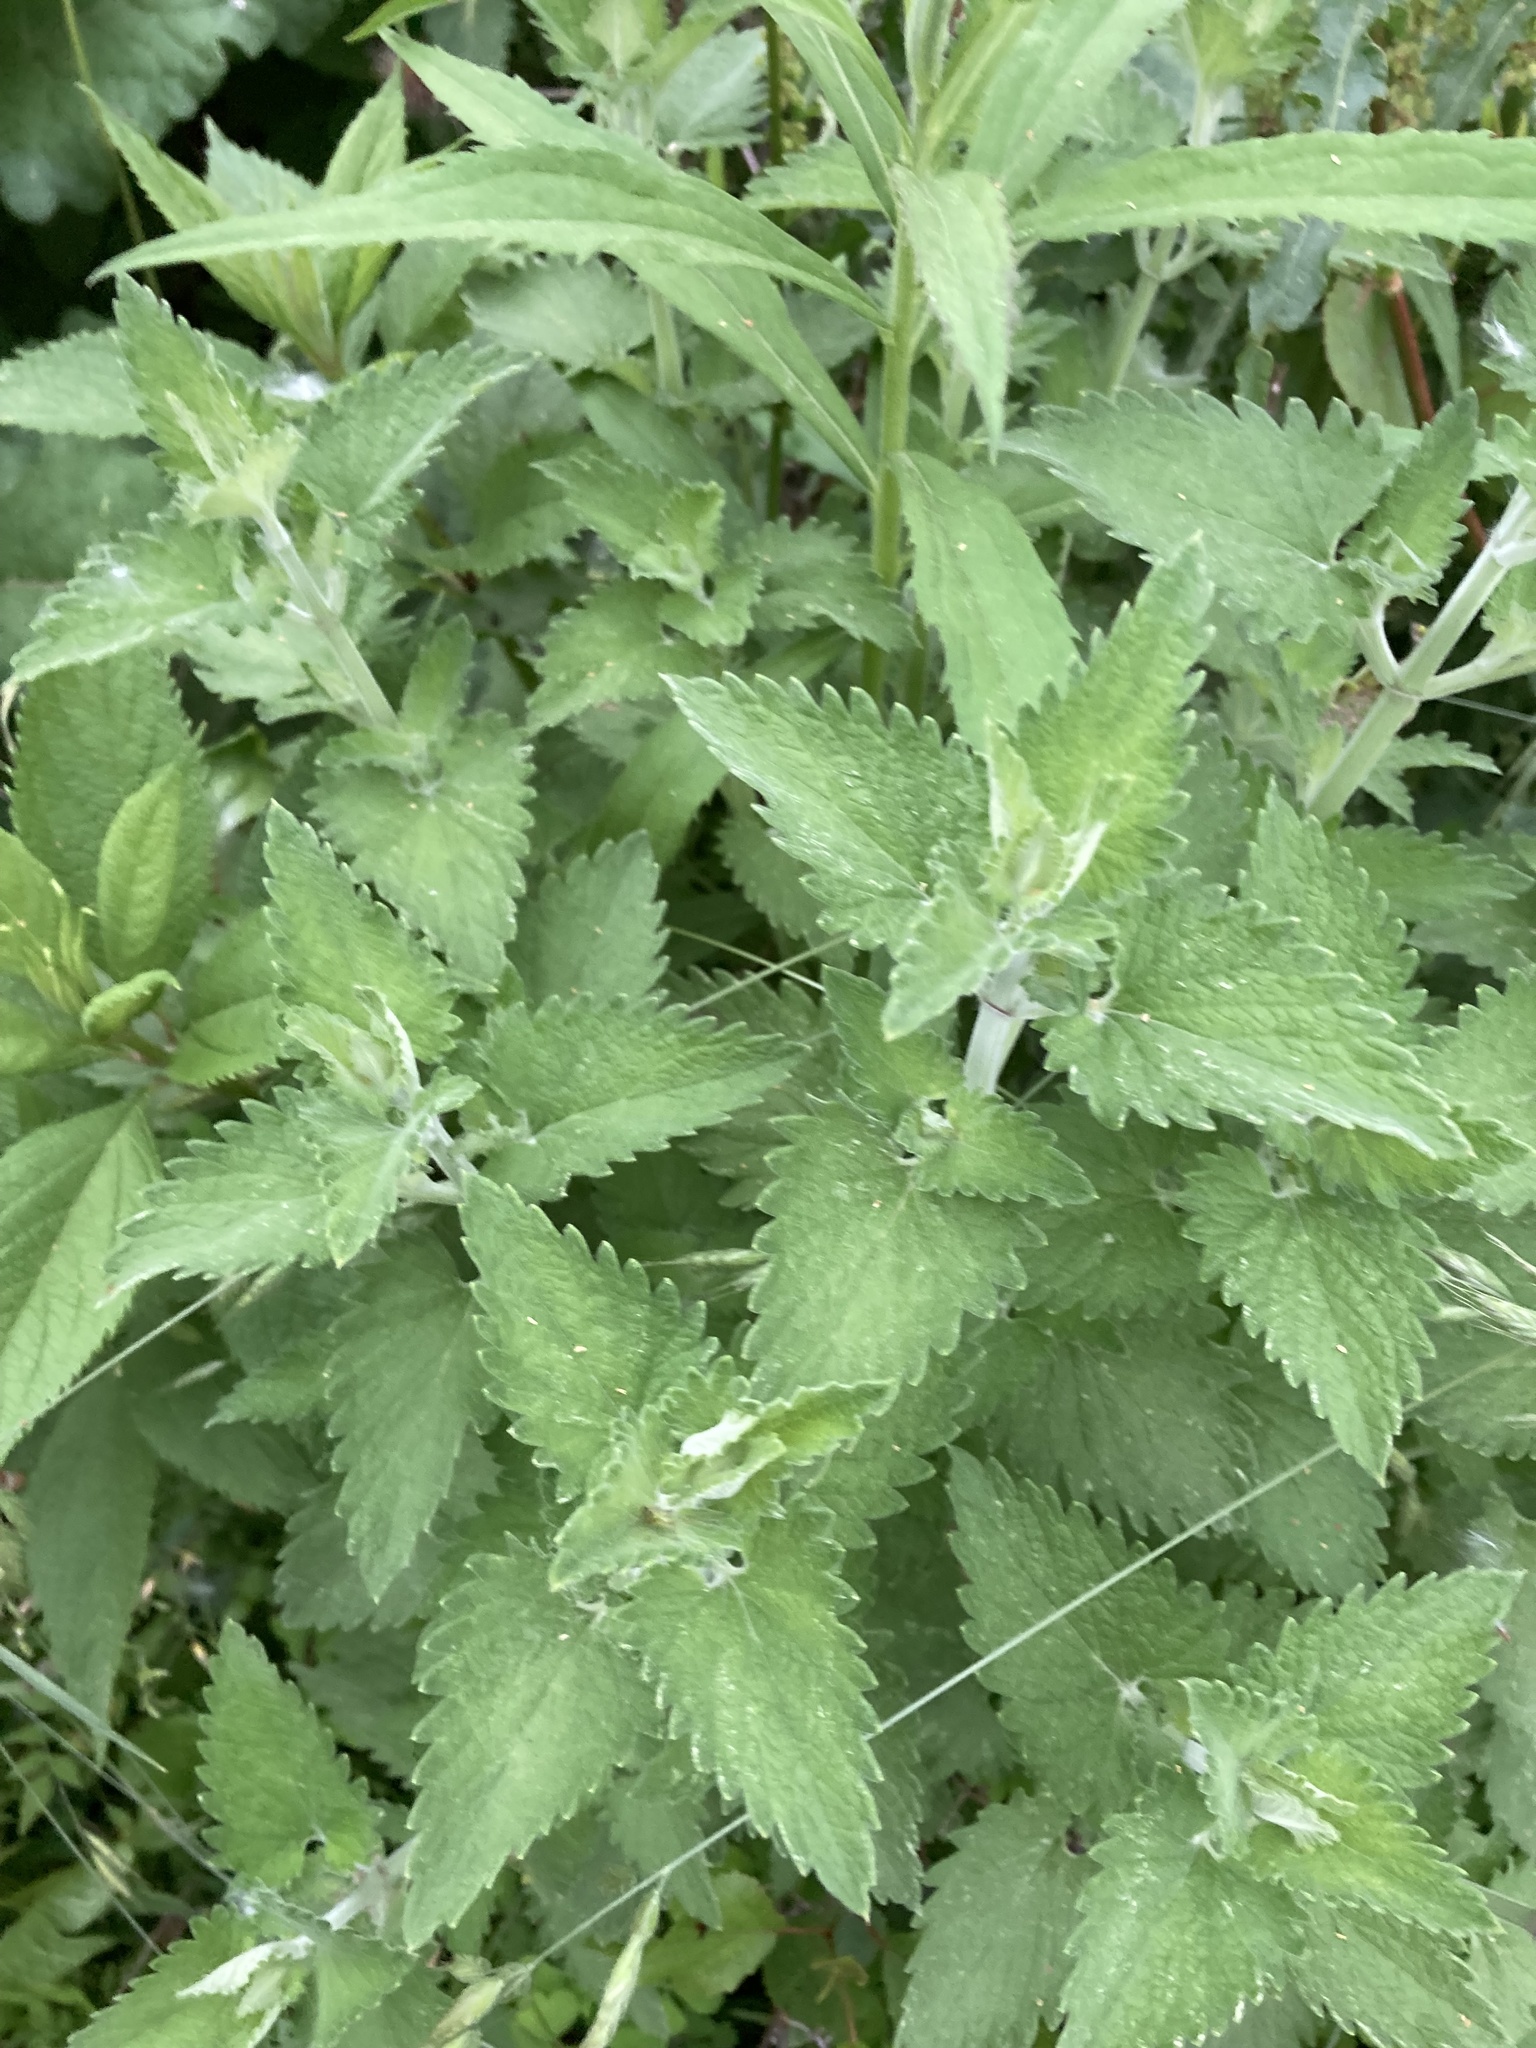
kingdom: Plantae
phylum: Tracheophyta
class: Magnoliopsida
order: Lamiales
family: Lamiaceae
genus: Nepeta
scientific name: Nepeta cataria
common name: Catnip
